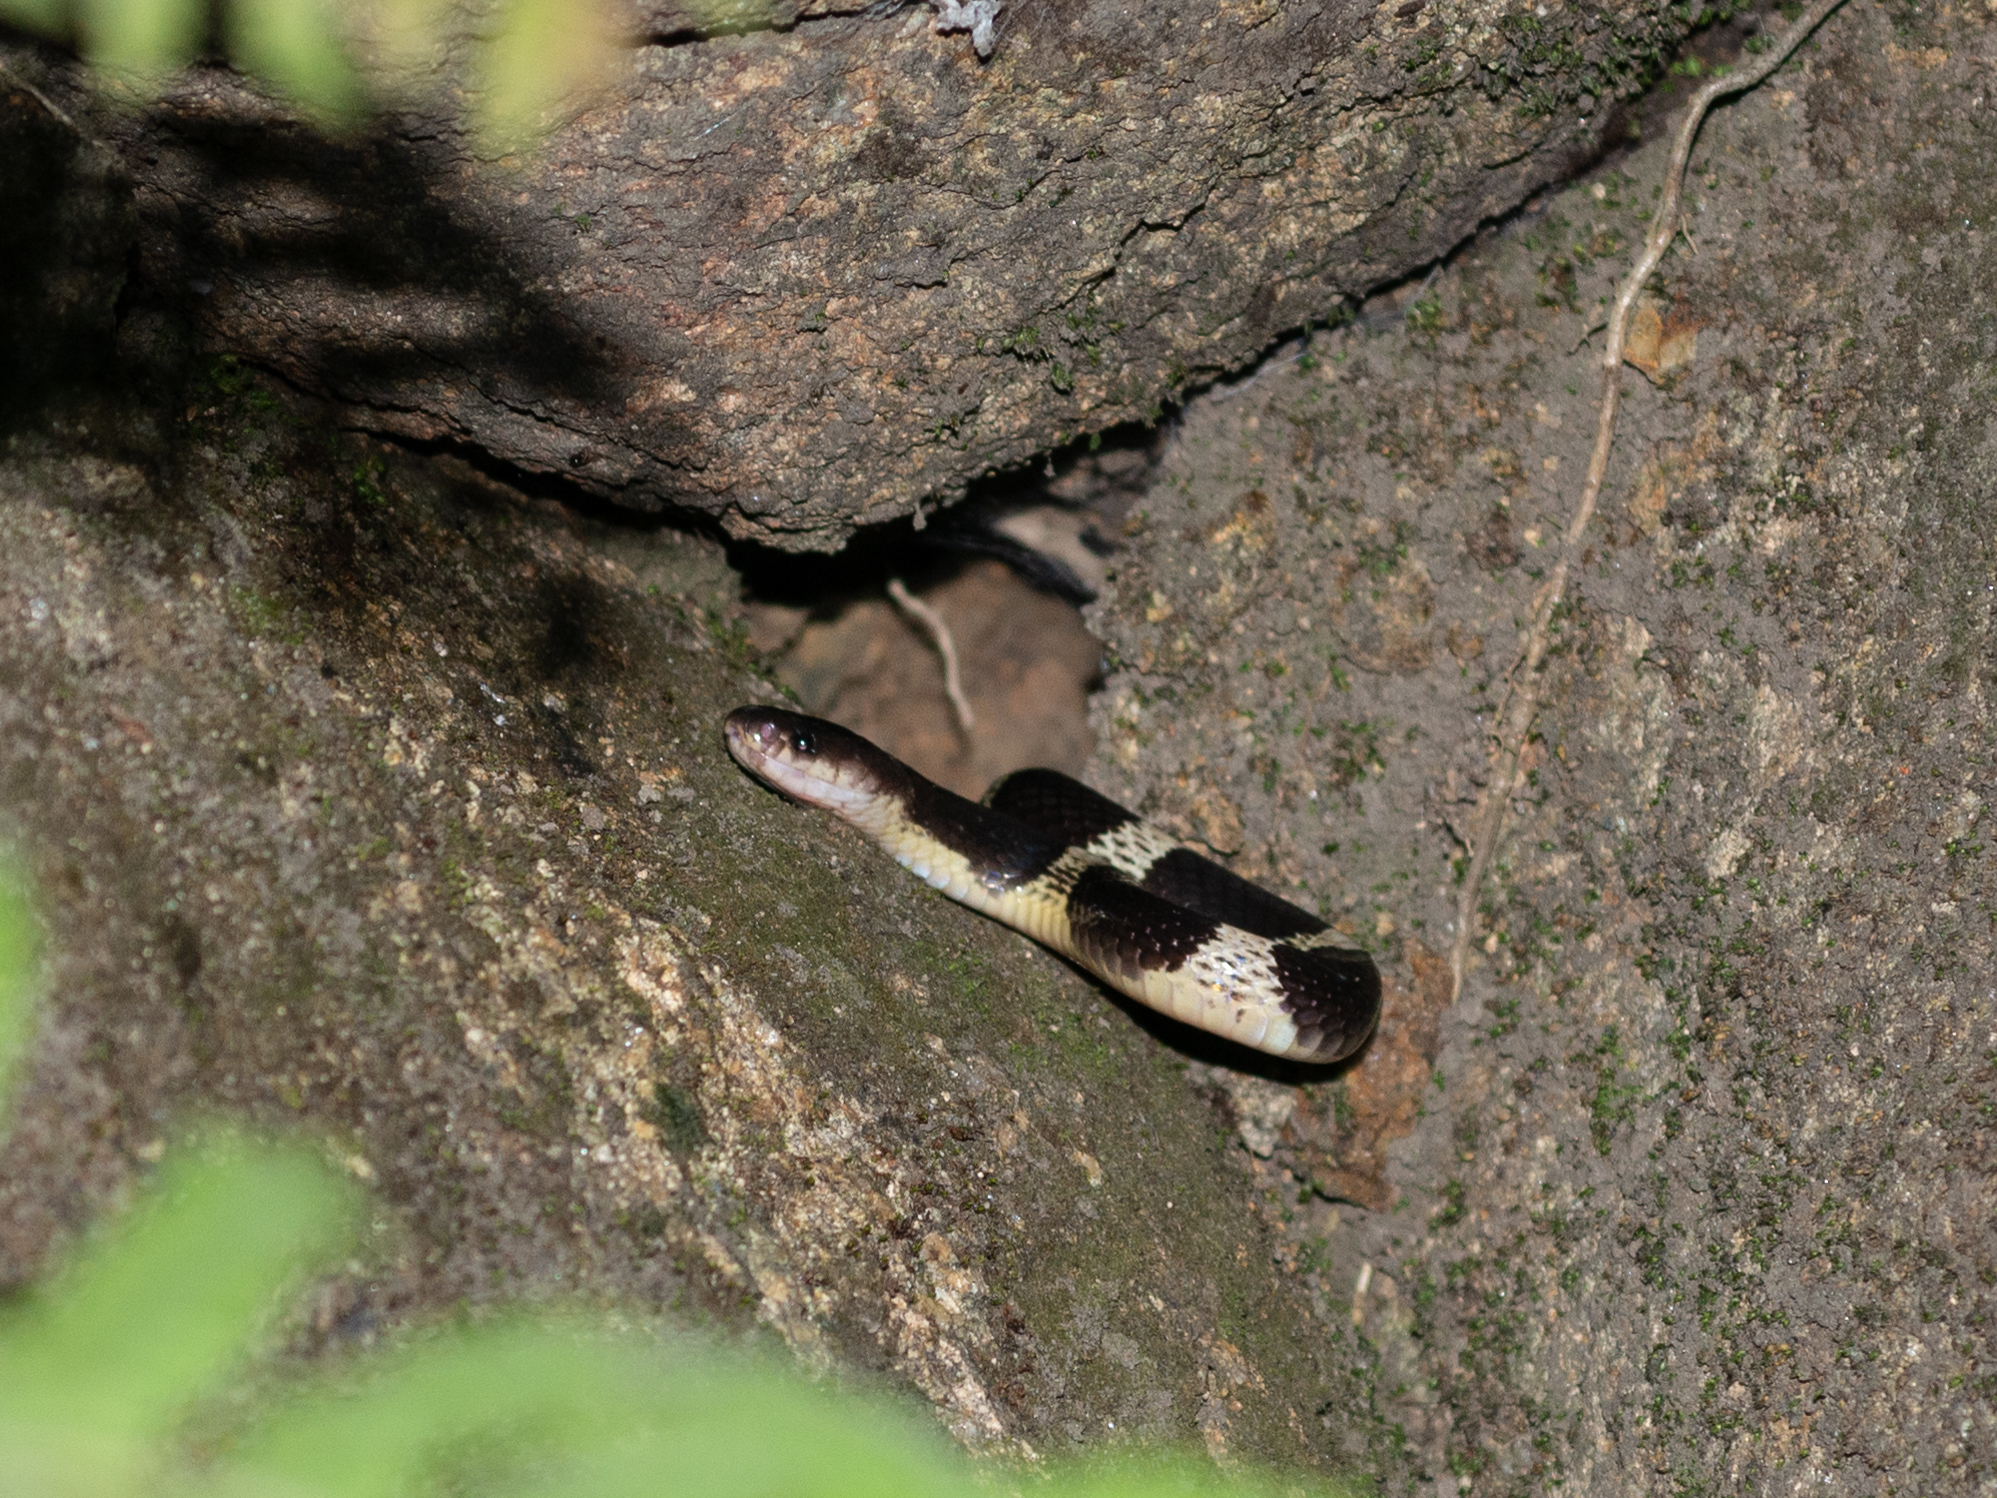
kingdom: Animalia
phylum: Chordata
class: Squamata
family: Elapidae
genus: Bungarus
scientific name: Bungarus multicinctus
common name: Many-banded krait
